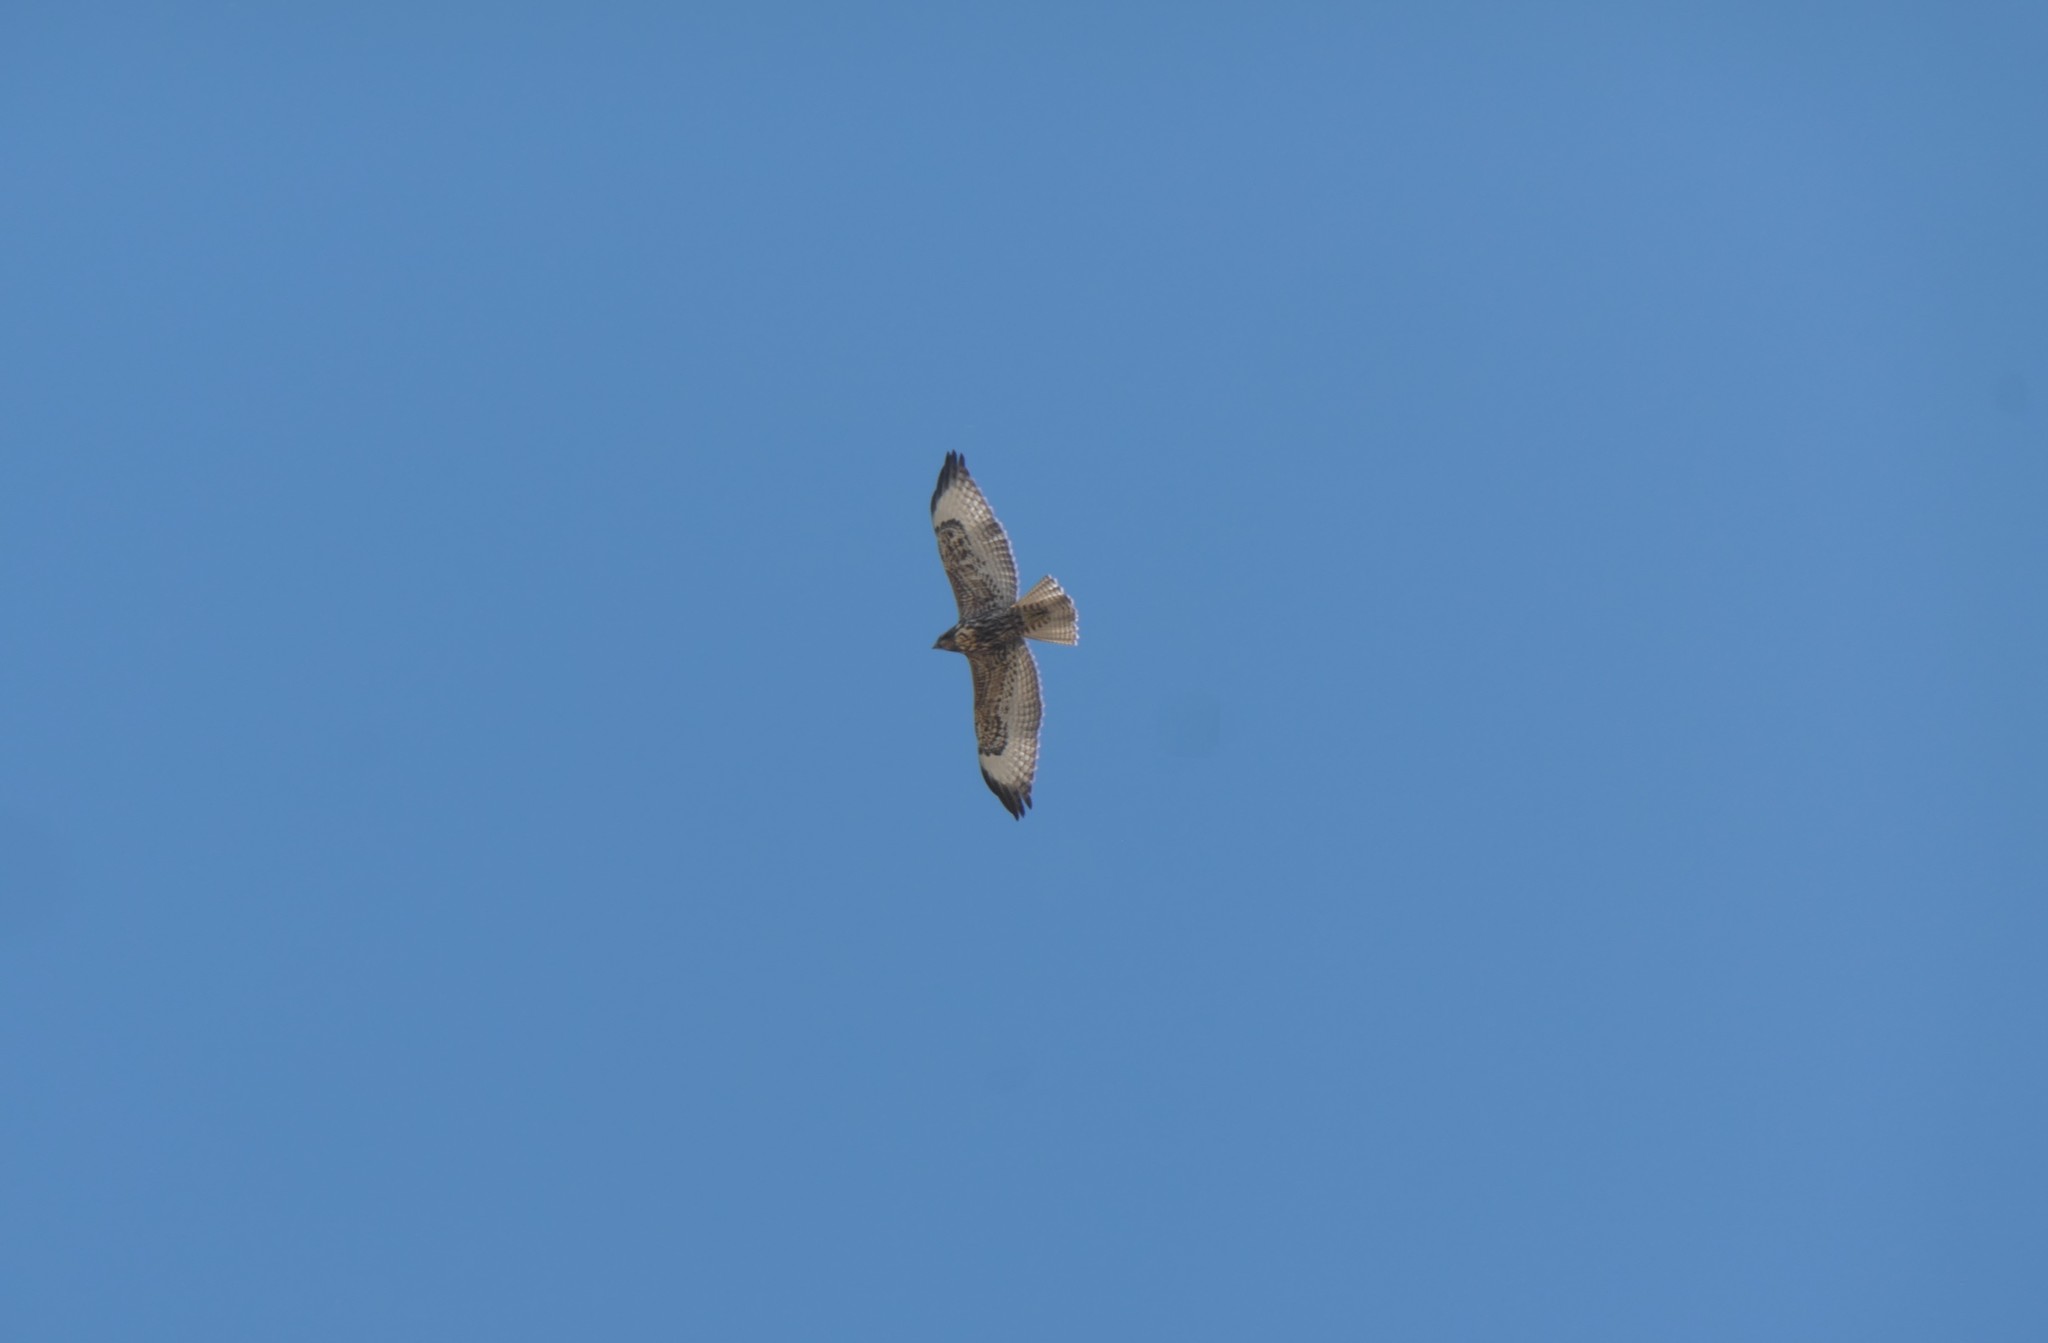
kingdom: Animalia
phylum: Chordata
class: Aves
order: Accipitriformes
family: Accipitridae
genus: Buteo
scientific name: Buteo jamaicensis
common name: Red-tailed hawk
